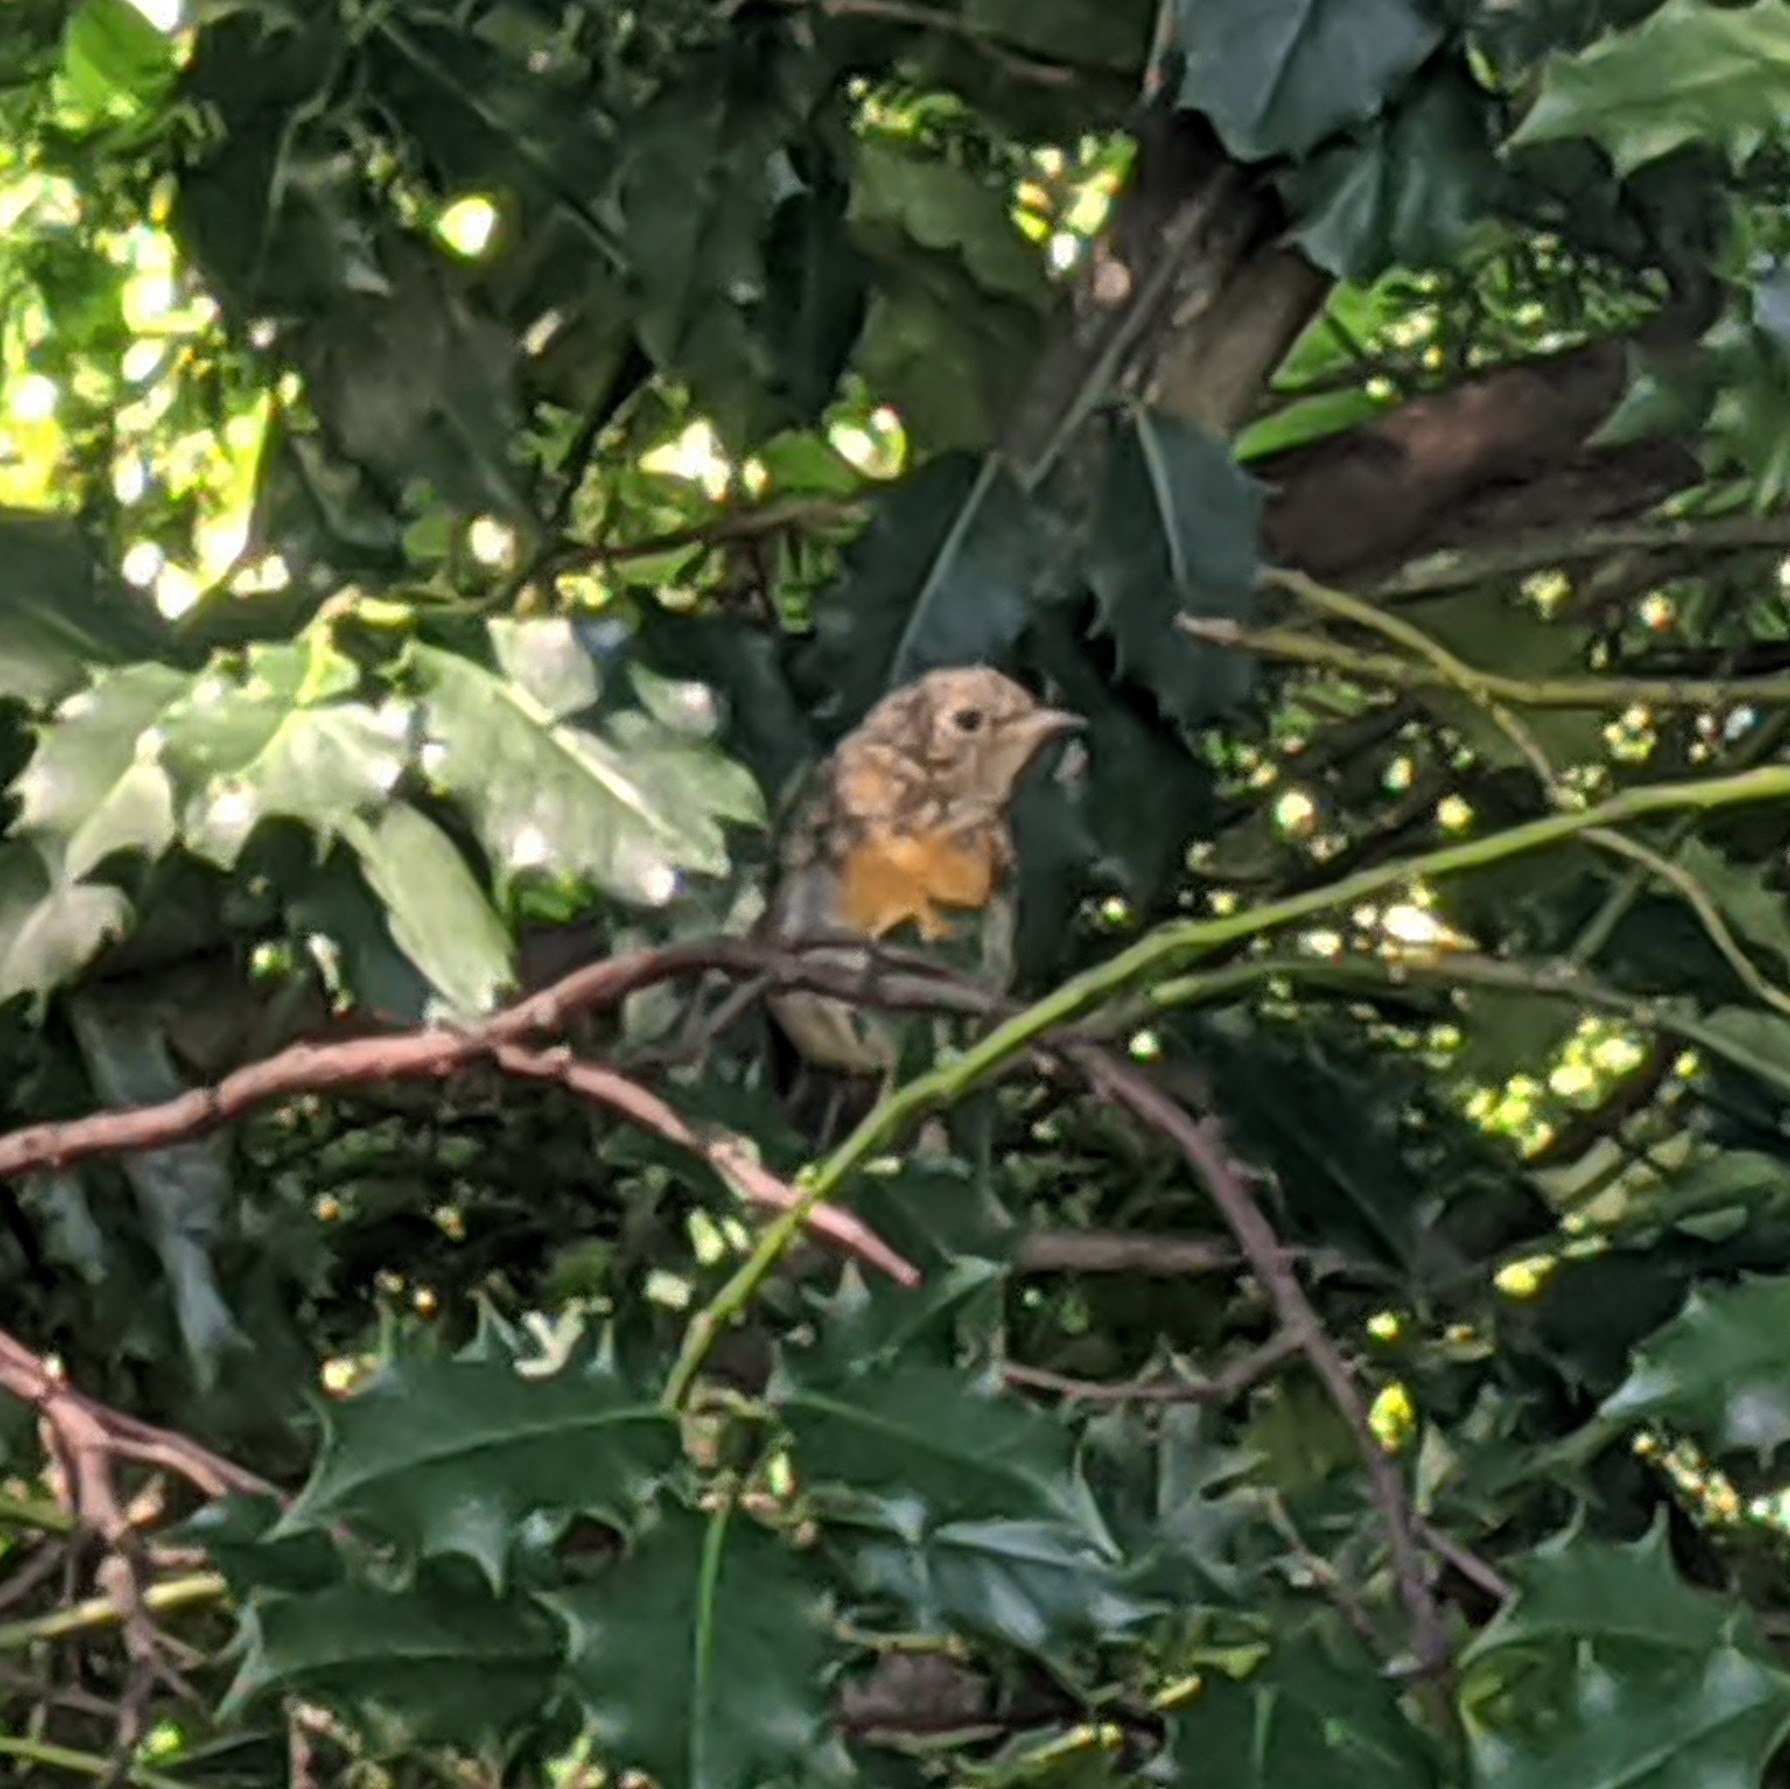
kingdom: Animalia
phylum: Chordata
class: Aves
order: Passeriformes
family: Muscicapidae
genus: Erithacus
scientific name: Erithacus rubecula
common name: European robin
